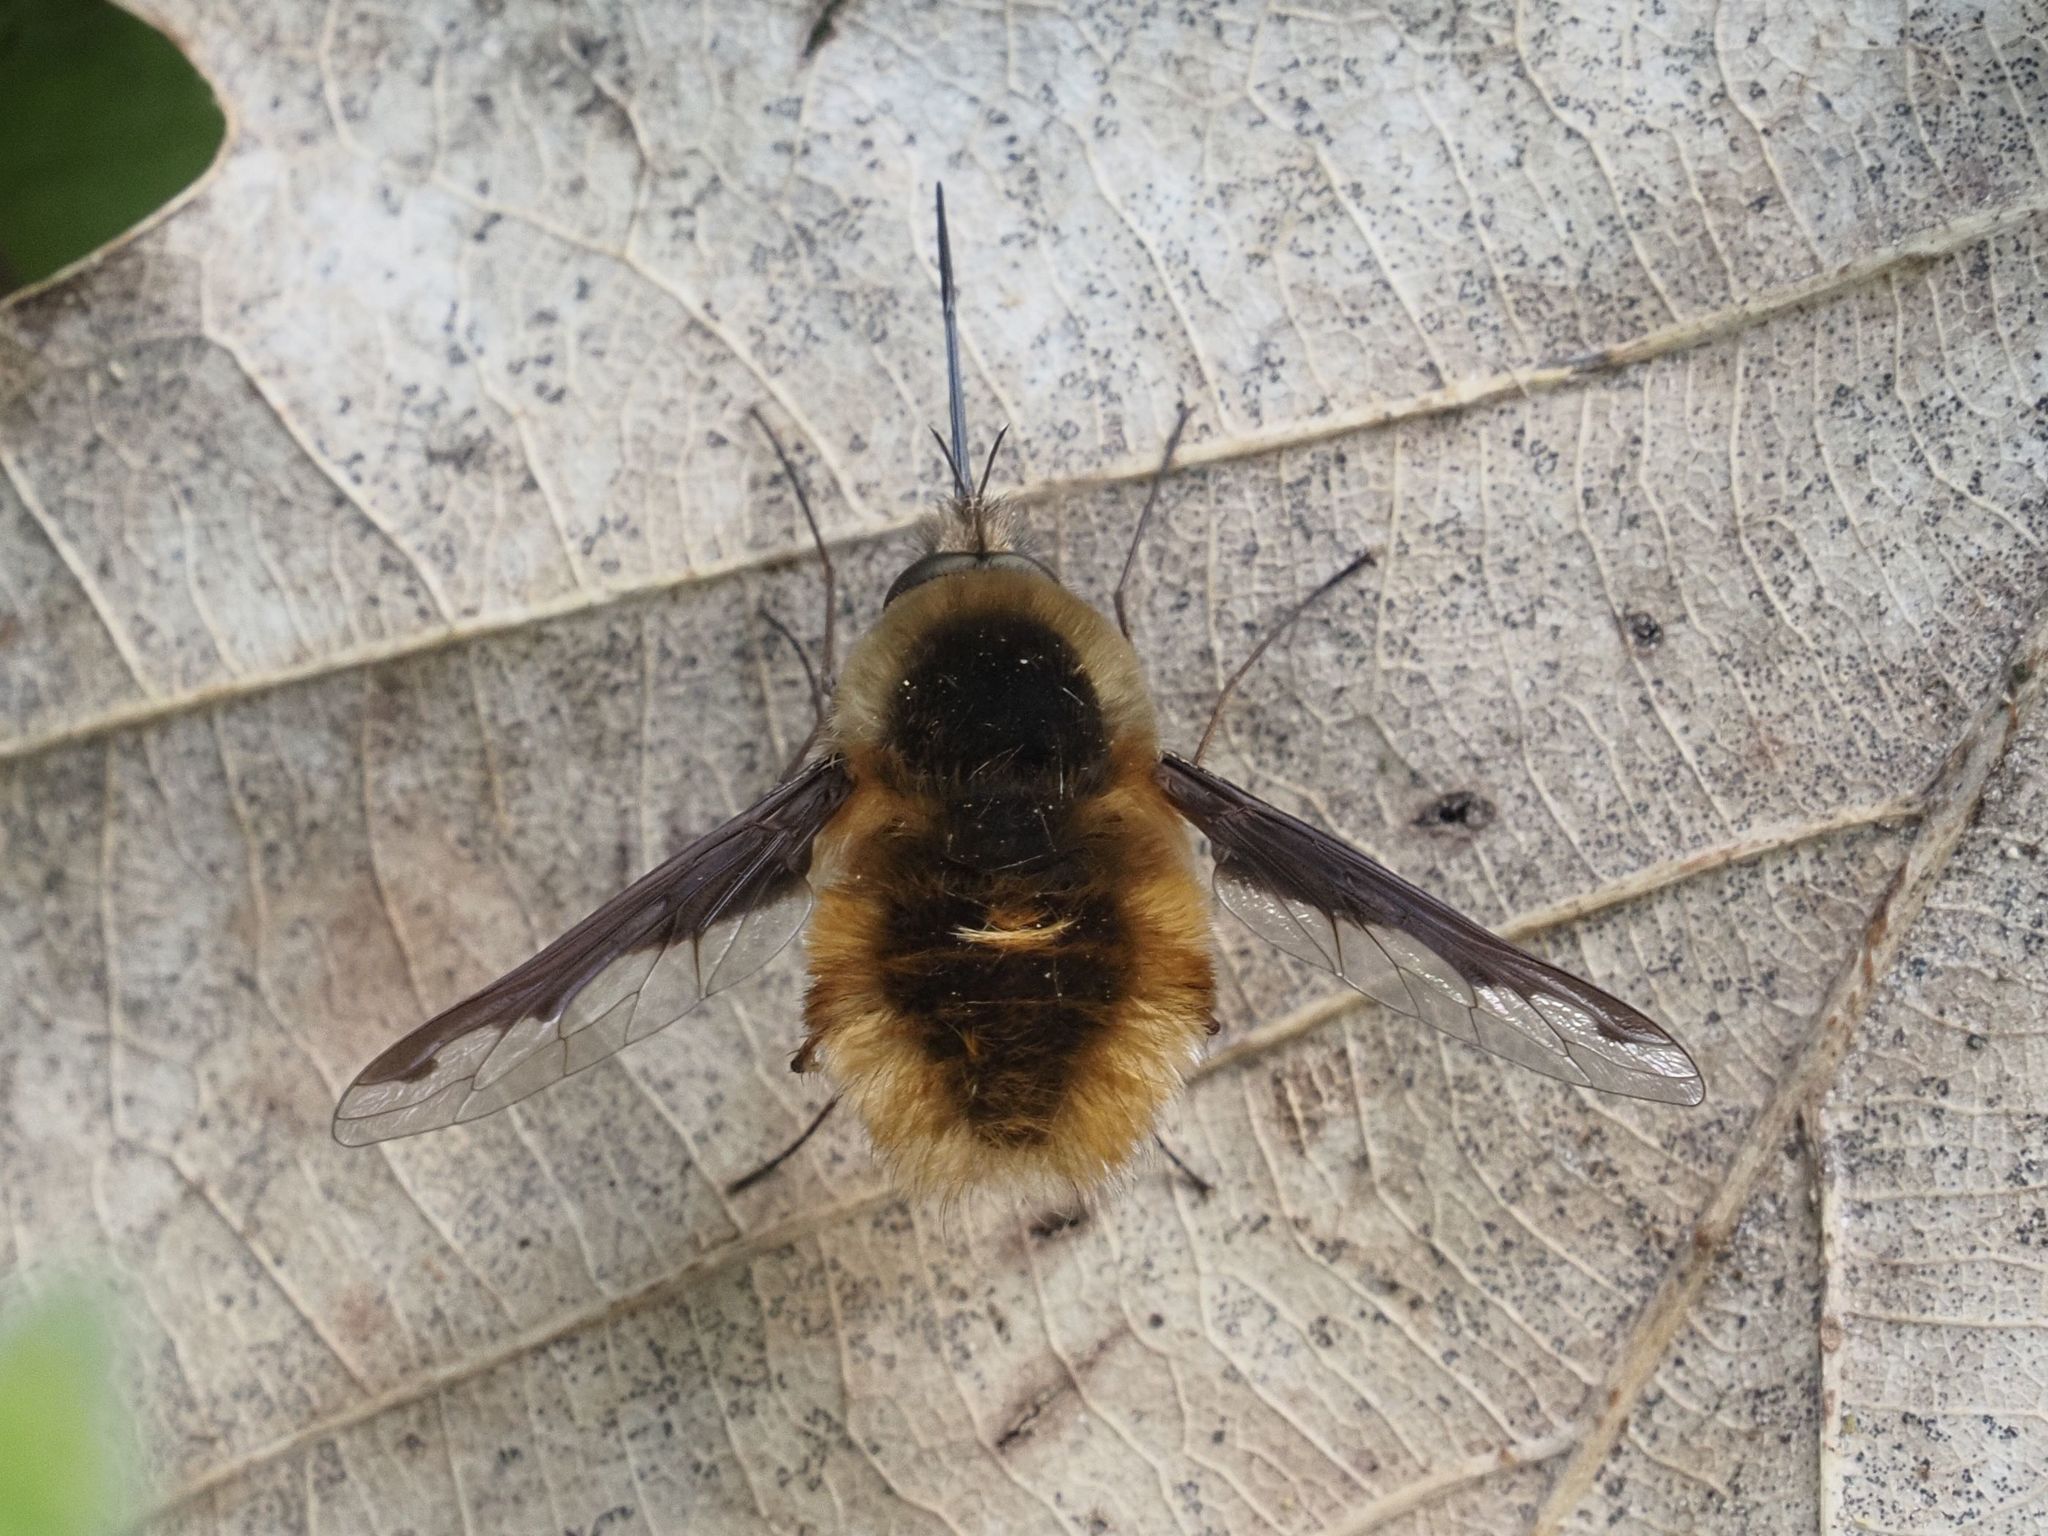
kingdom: Animalia
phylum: Arthropoda
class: Insecta
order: Diptera
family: Bombyliidae
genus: Bombylius
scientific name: Bombylius major
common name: Bee fly
